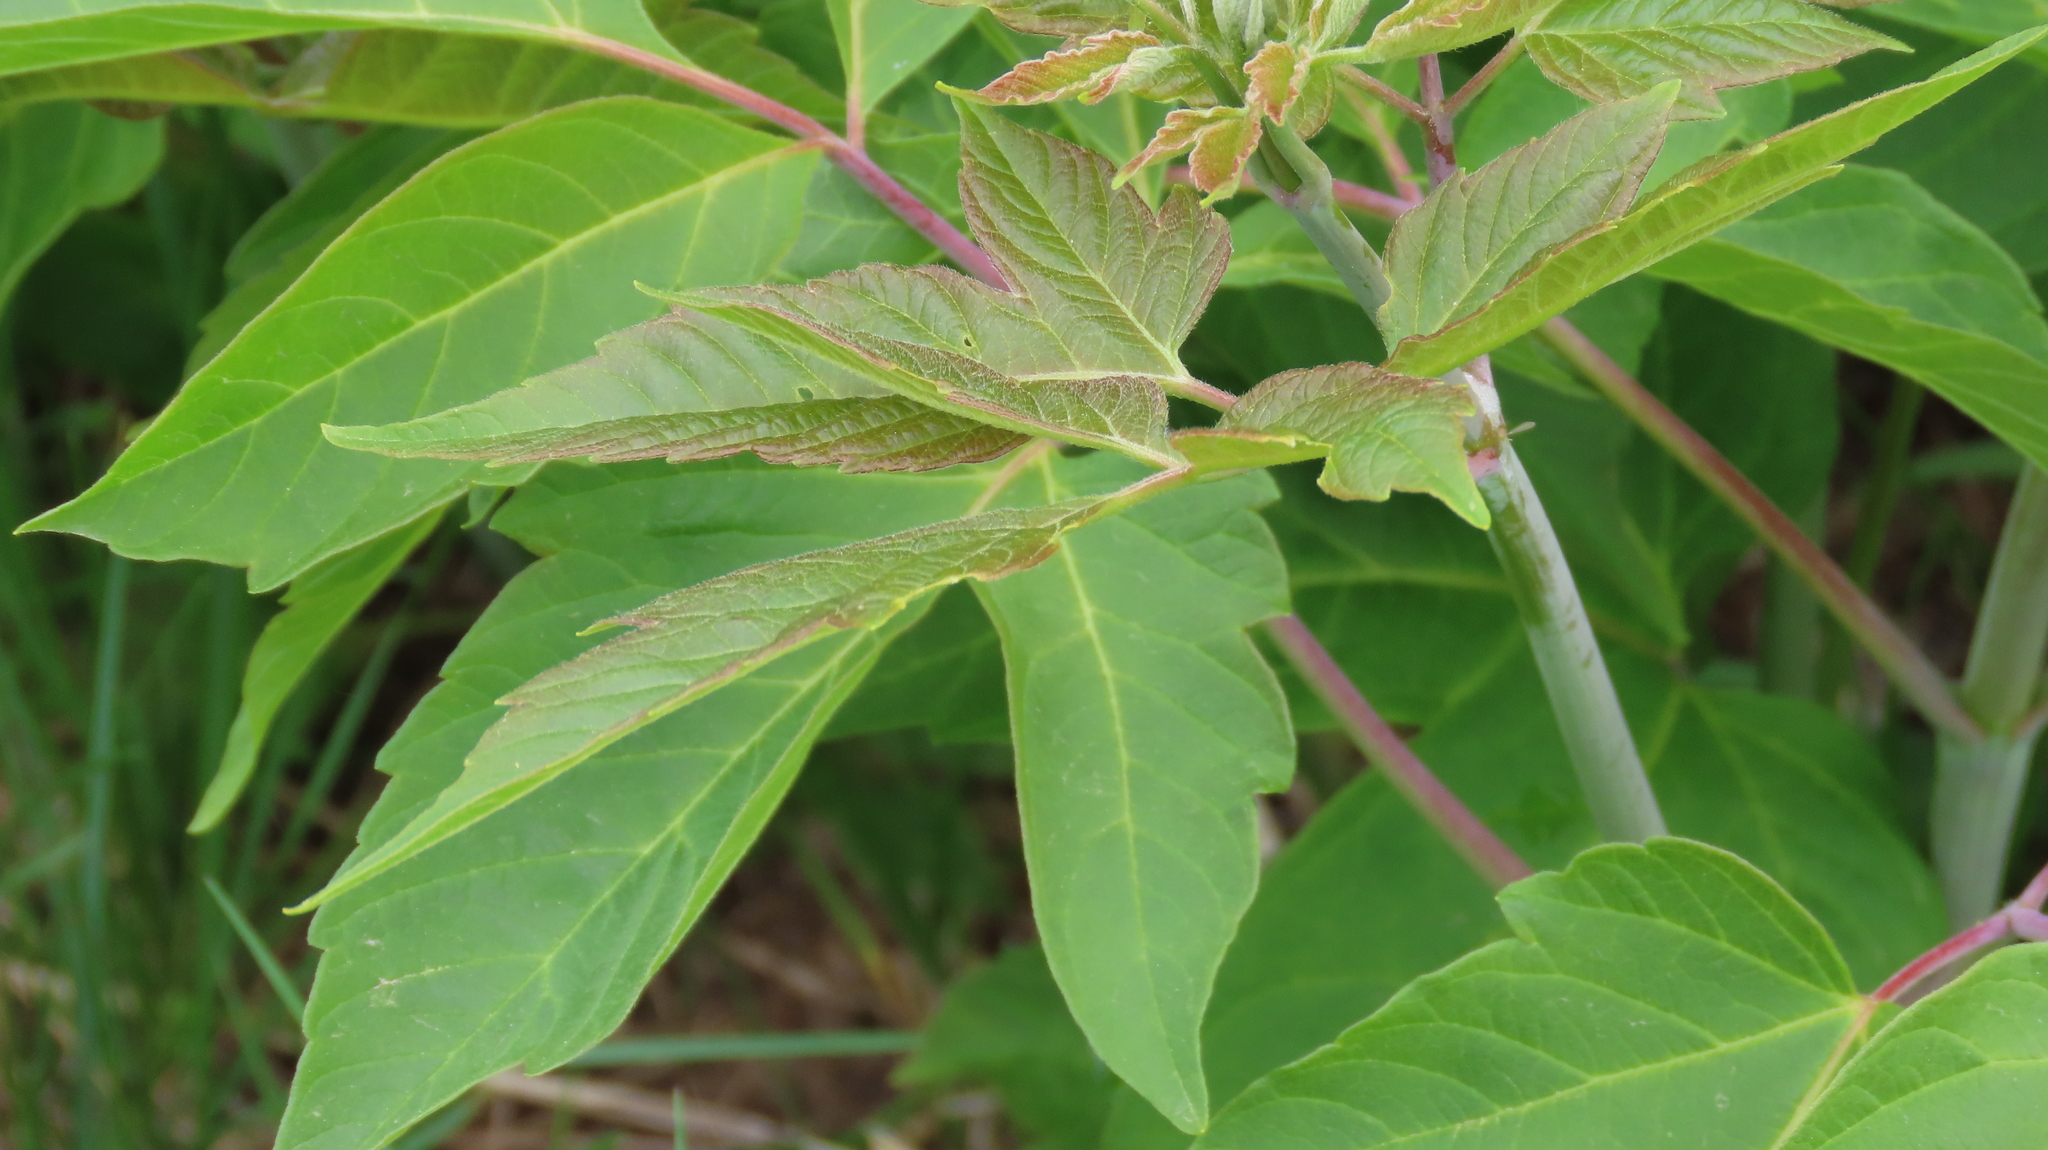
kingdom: Plantae
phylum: Tracheophyta
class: Magnoliopsida
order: Sapindales
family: Sapindaceae
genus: Acer
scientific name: Acer negundo
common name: Ashleaf maple
